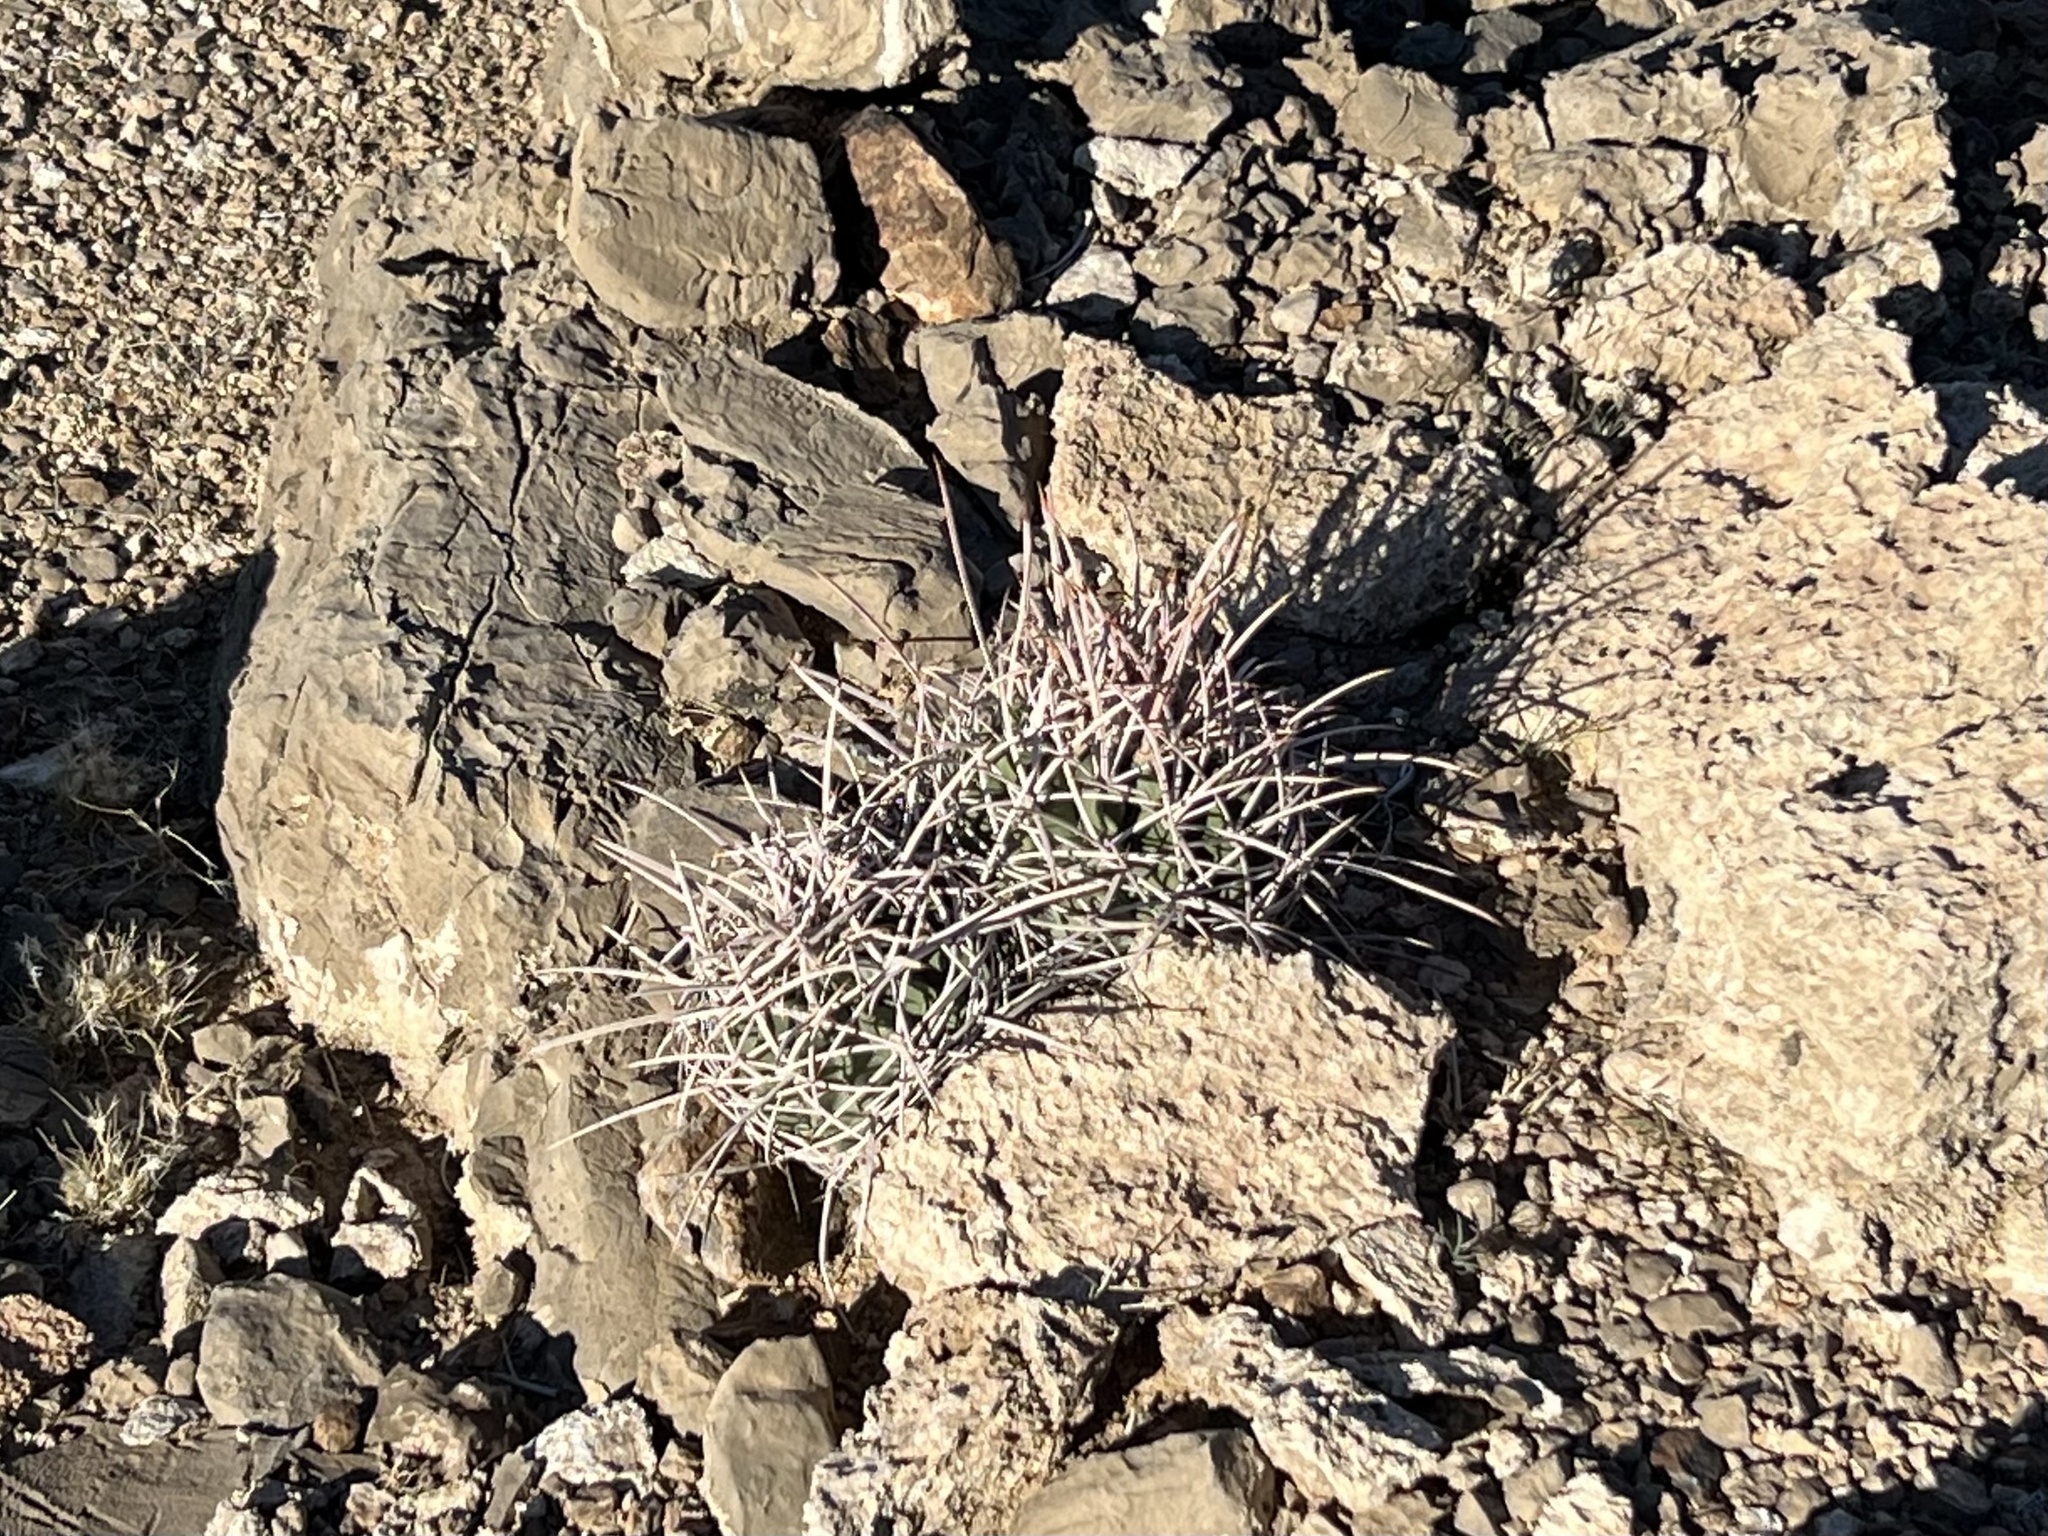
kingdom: Plantae
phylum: Tracheophyta
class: Magnoliopsida
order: Caryophyllales
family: Cactaceae
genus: Echinocactus
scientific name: Echinocactus polycephalus
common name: Cottontop cactus
